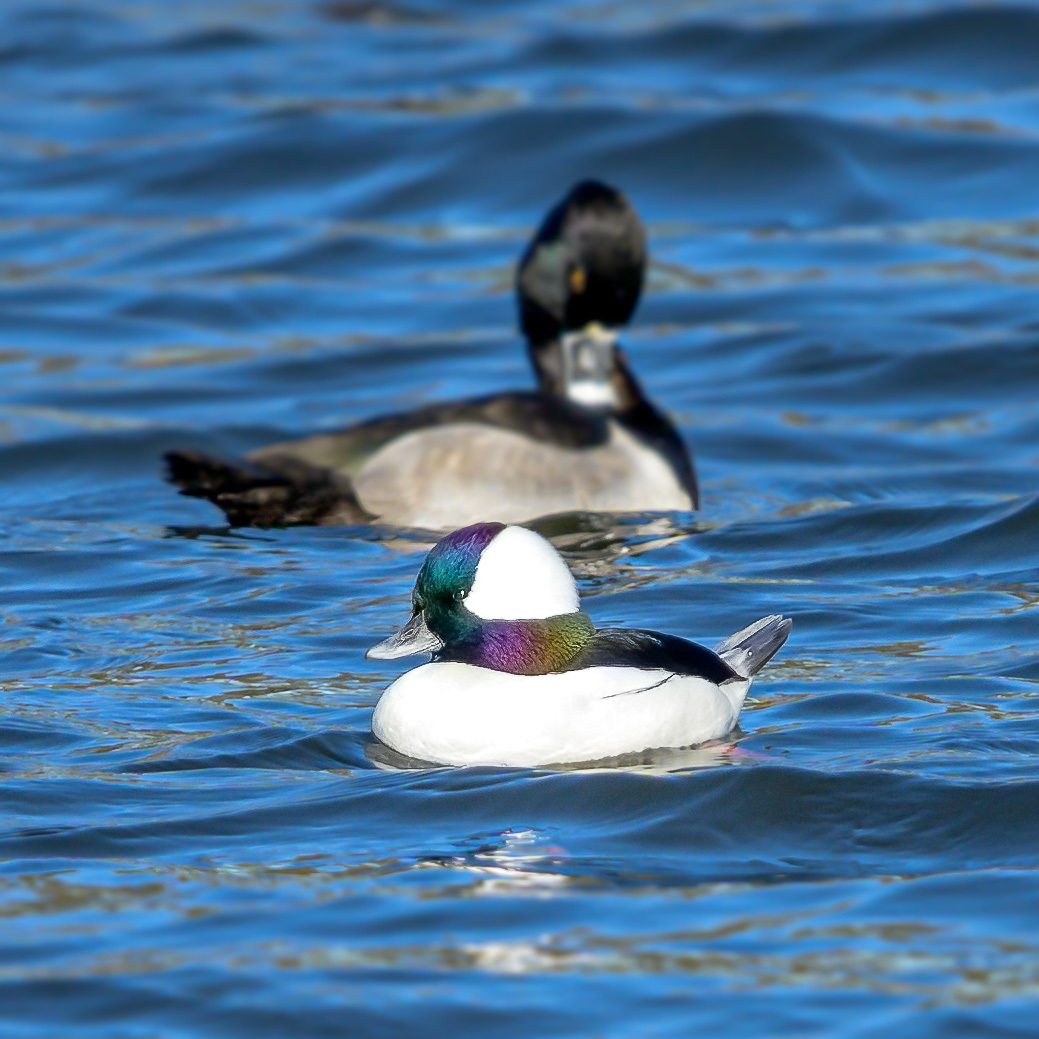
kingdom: Animalia
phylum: Chordata
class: Aves
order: Anseriformes
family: Anatidae
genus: Bucephala
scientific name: Bucephala albeola
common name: Bufflehead
